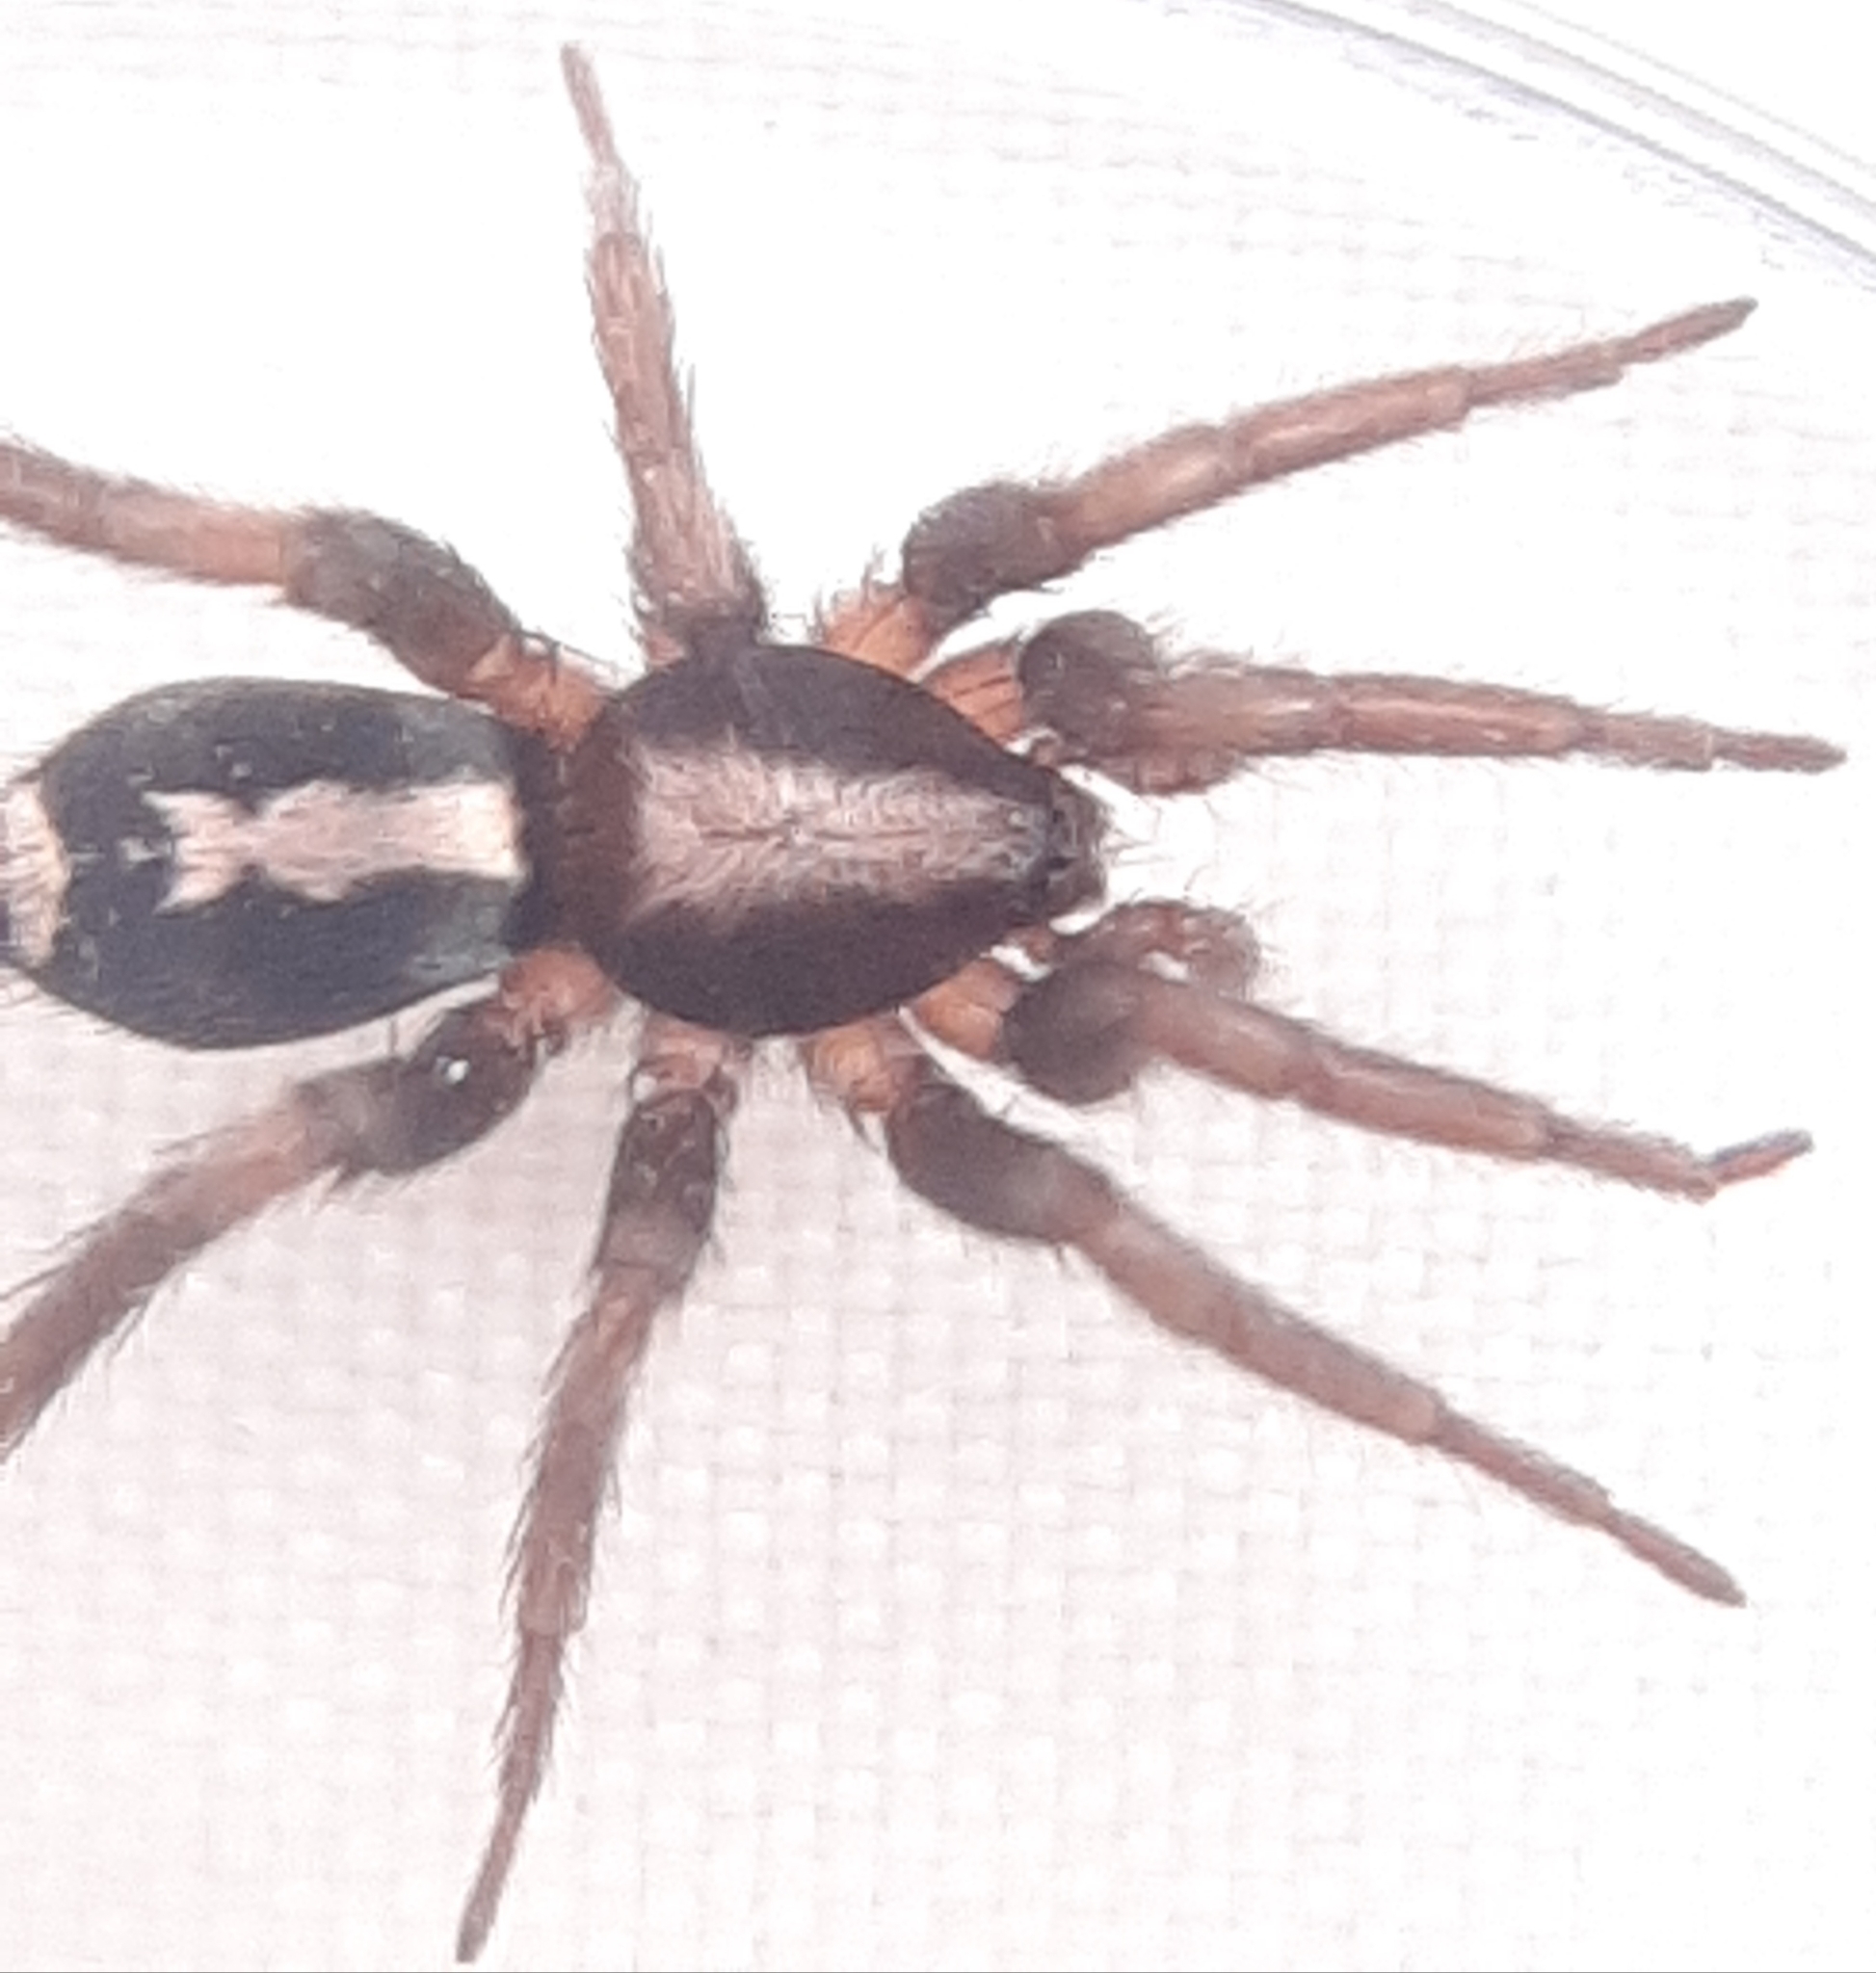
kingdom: Animalia
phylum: Arthropoda
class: Arachnida
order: Araneae
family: Gnaphosidae
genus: Herpyllus
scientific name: Herpyllus ecclesiasticus
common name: Eastern parson spider
